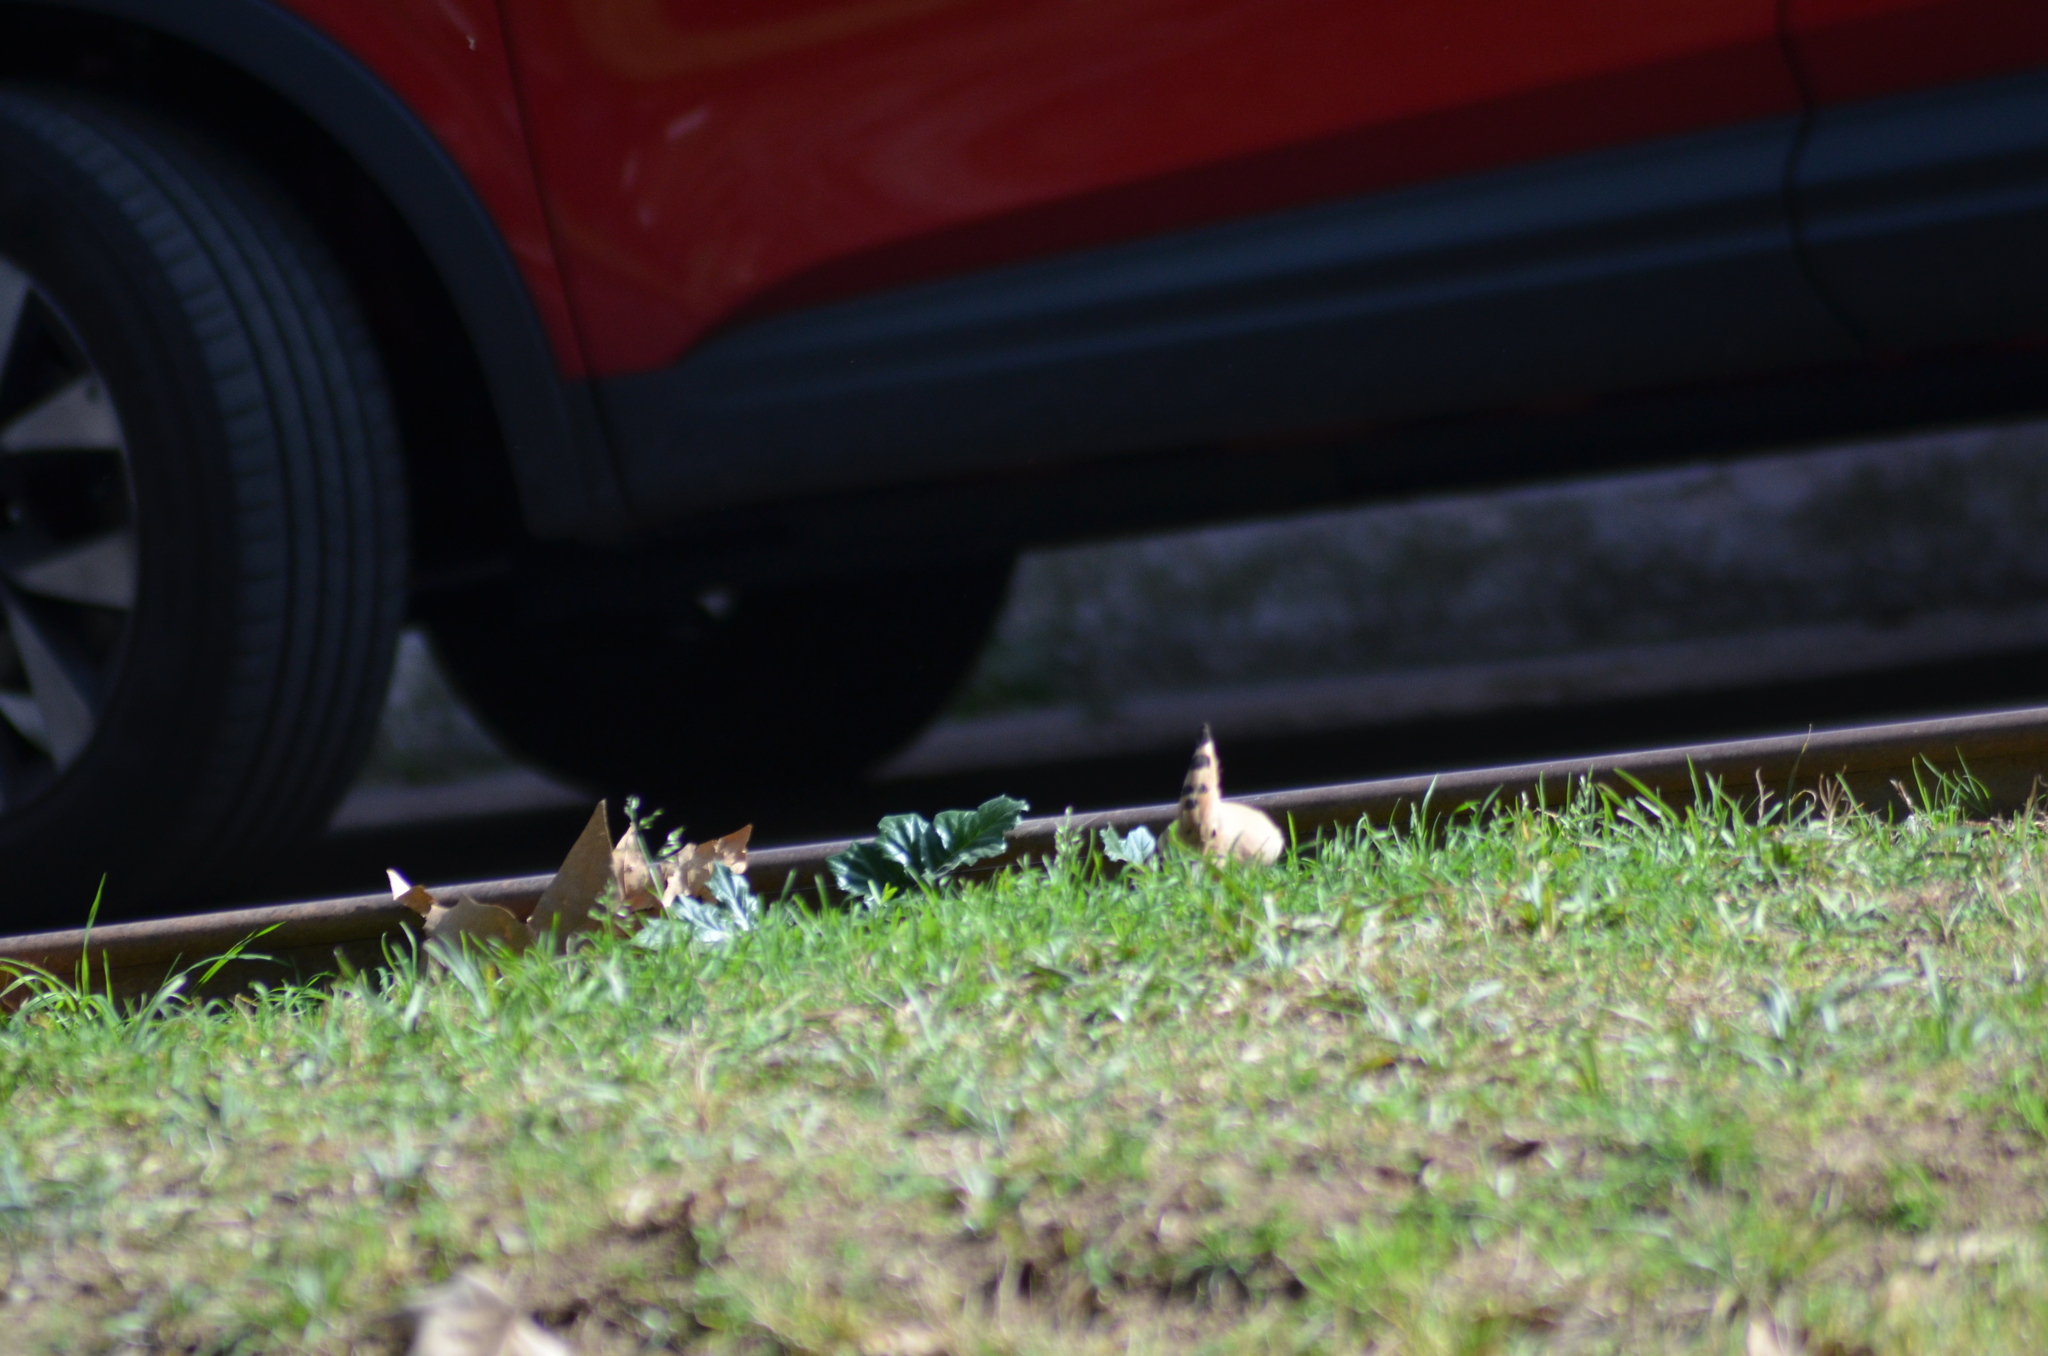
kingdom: Animalia
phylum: Chordata
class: Aves
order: Bucerotiformes
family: Upupidae
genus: Upupa
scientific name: Upupa epops
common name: Eurasian hoopoe
